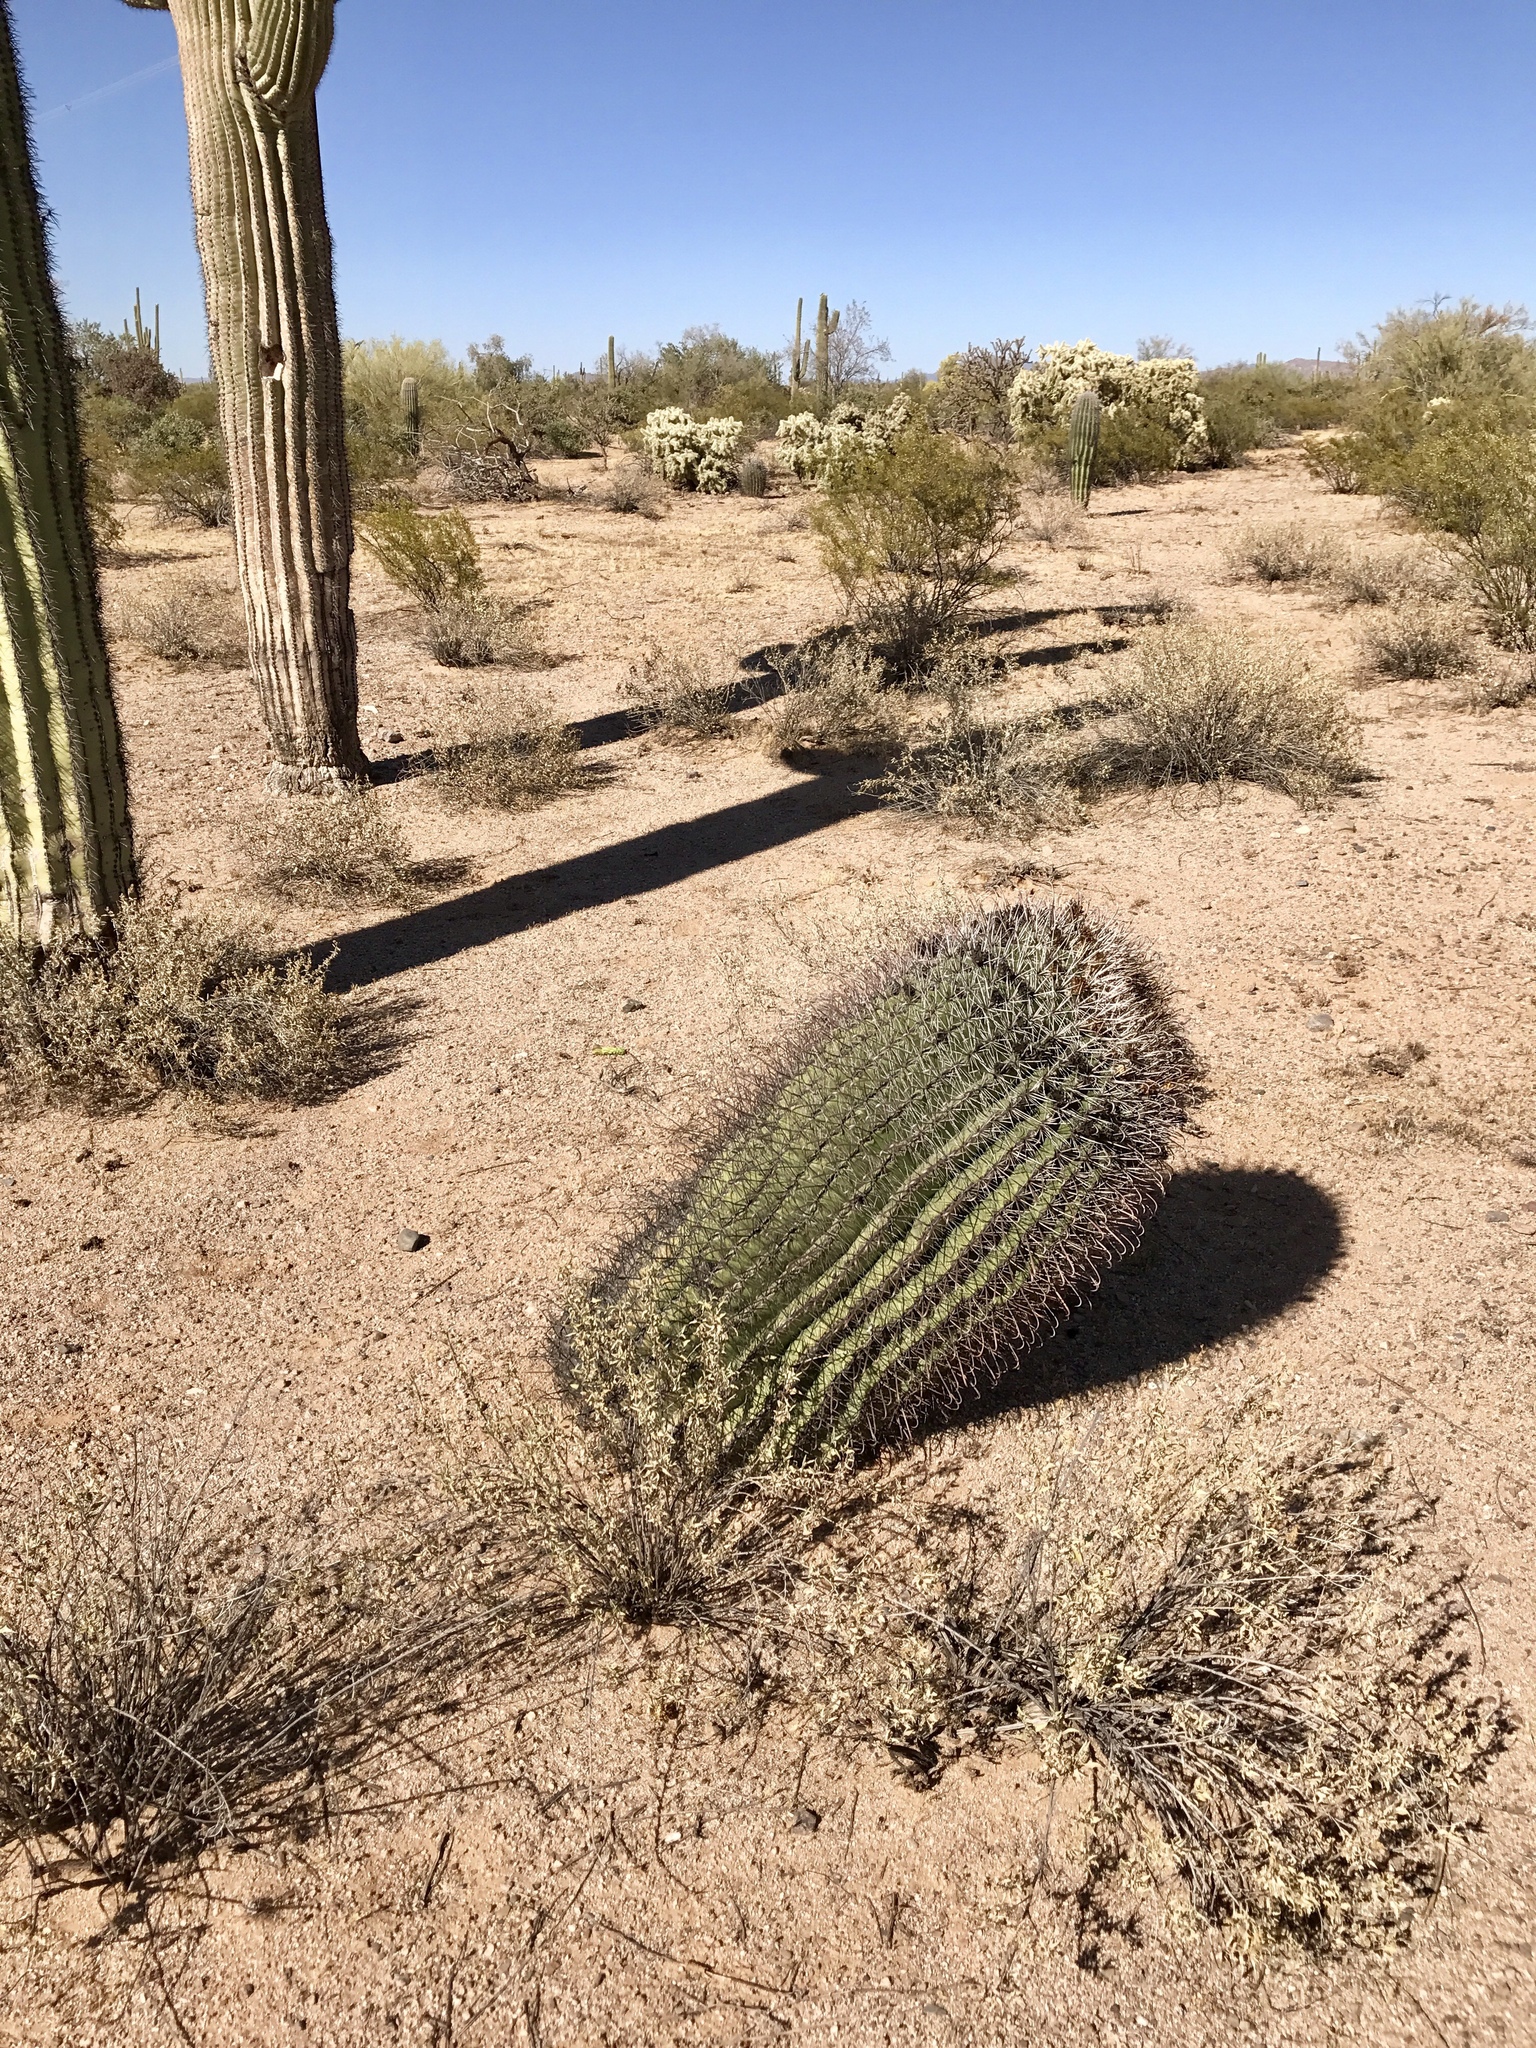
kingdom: Plantae
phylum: Tracheophyta
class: Magnoliopsida
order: Caryophyllales
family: Cactaceae
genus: Ferocactus
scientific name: Ferocactus wislizeni
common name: Candy barrel cactus
